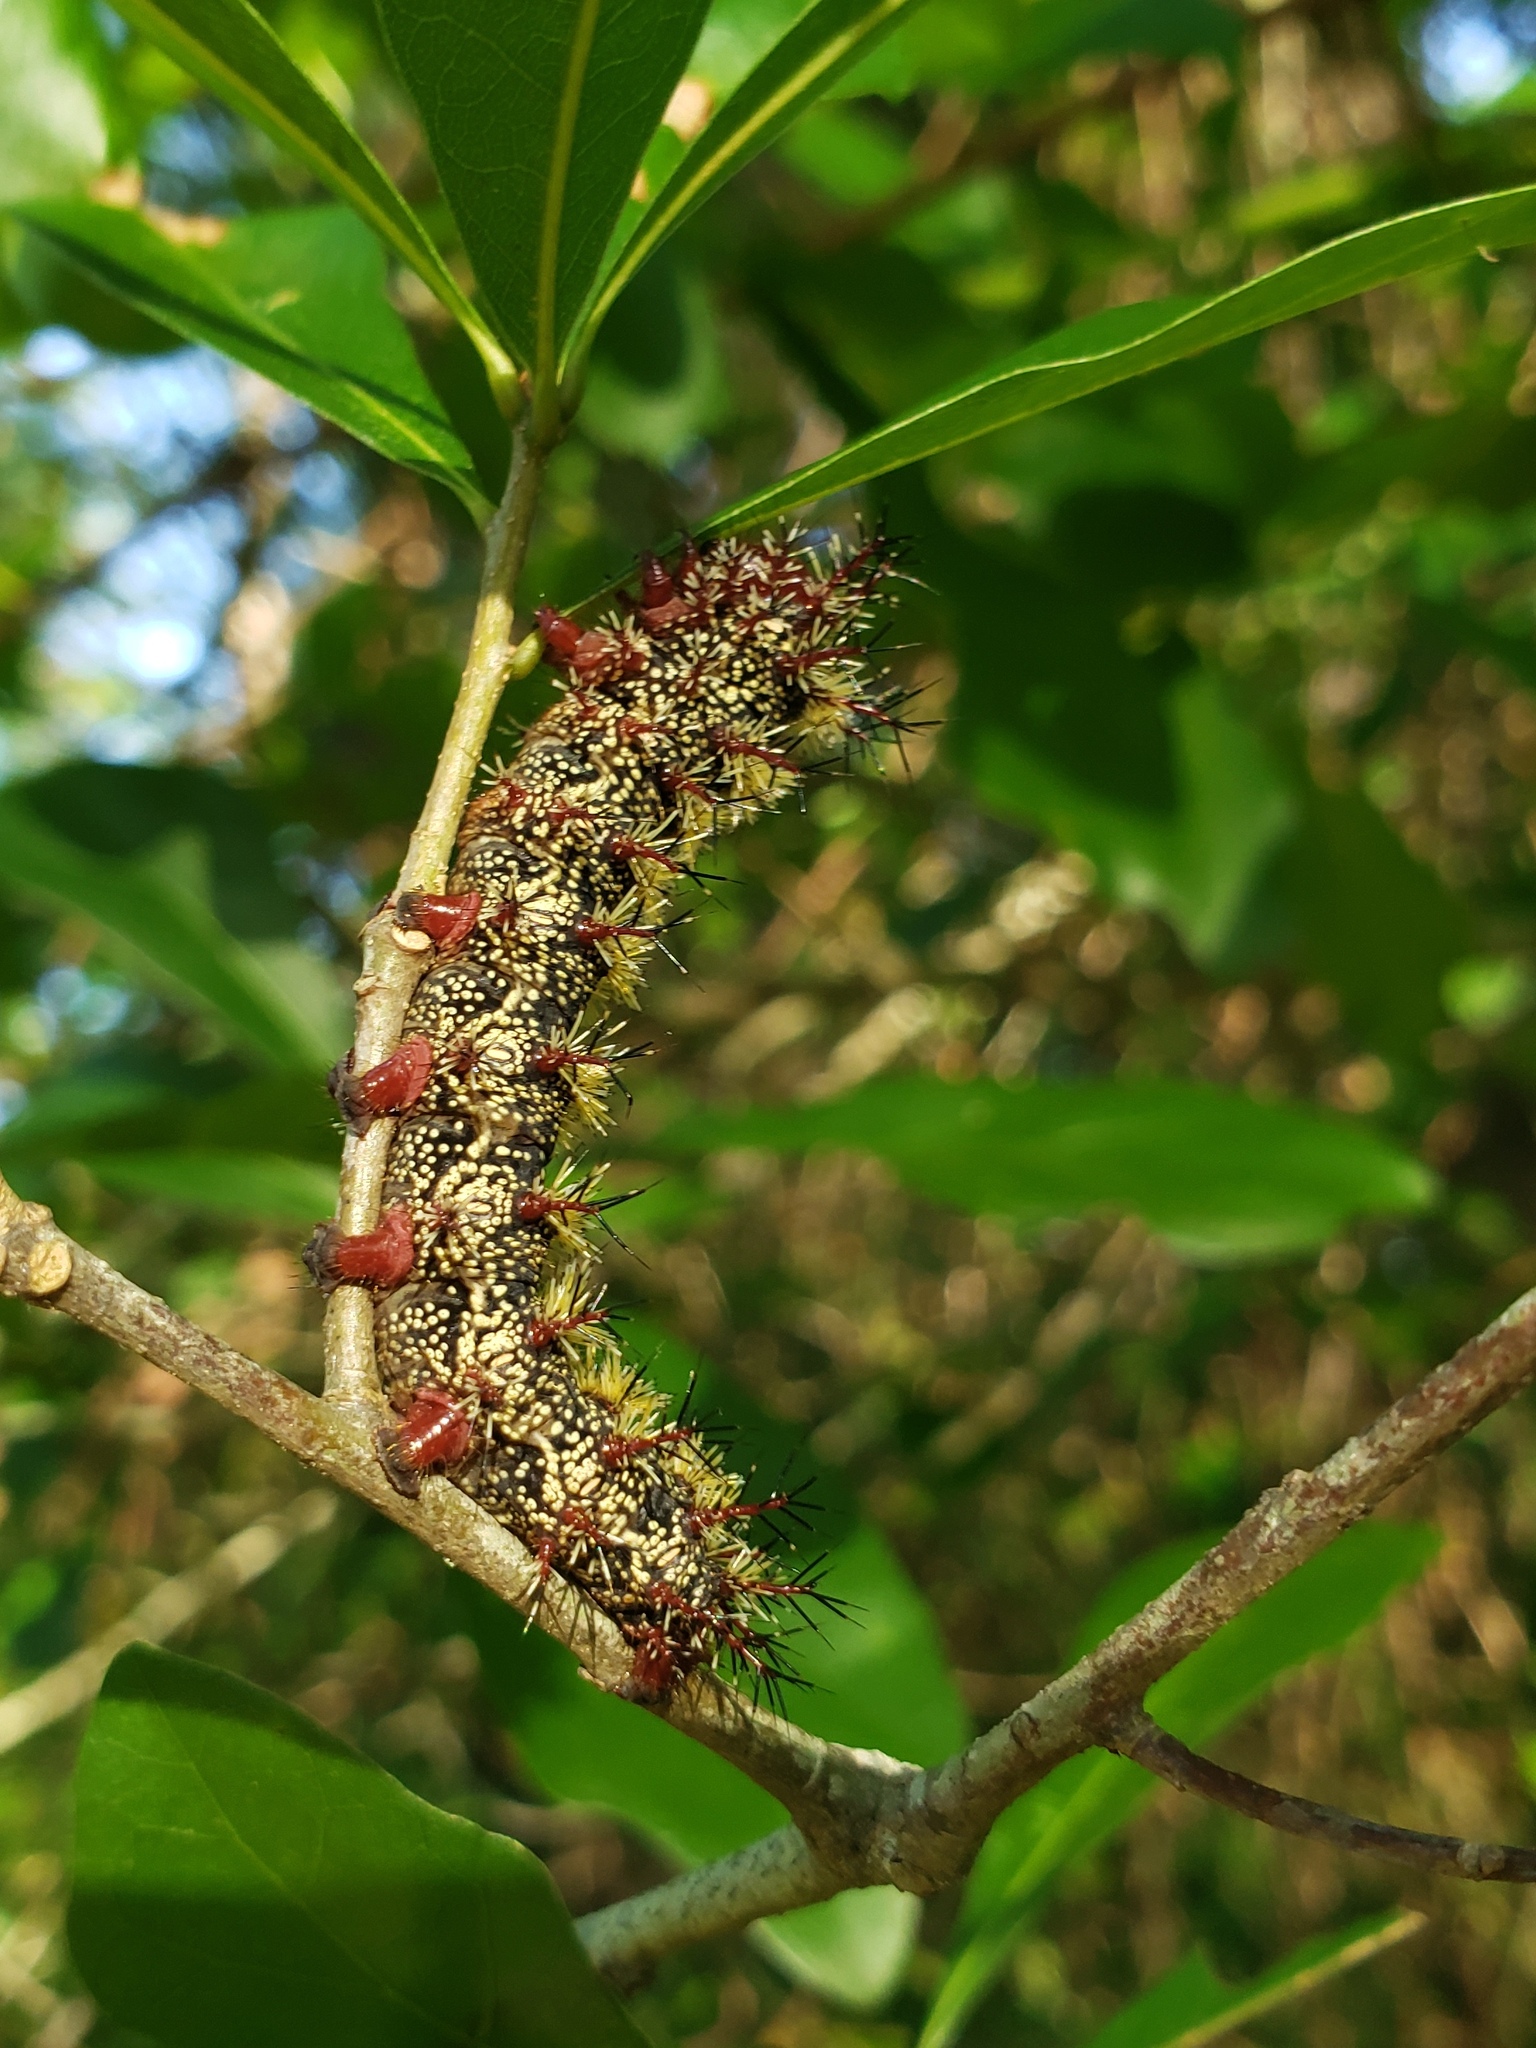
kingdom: Animalia
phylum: Arthropoda
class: Insecta
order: Lepidoptera
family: Saturniidae
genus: Hemileuca
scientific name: Hemileuca maia
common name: Eastern buckmoth
